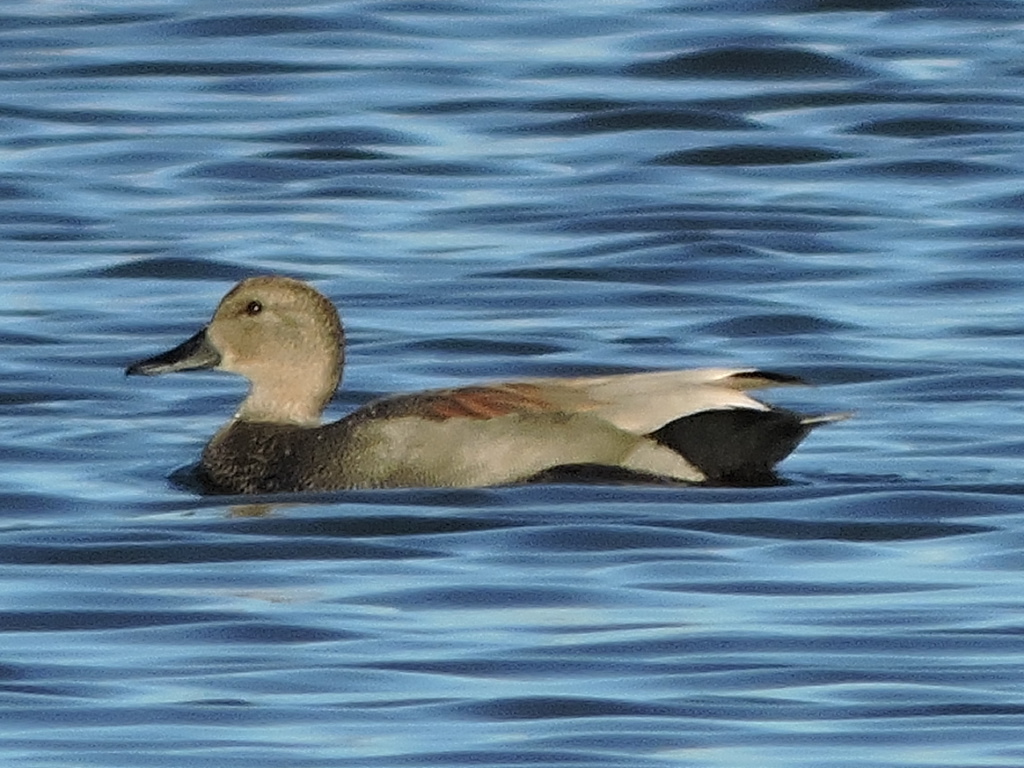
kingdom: Animalia
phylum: Chordata
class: Aves
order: Anseriformes
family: Anatidae
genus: Mareca
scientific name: Mareca strepera
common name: Gadwall
